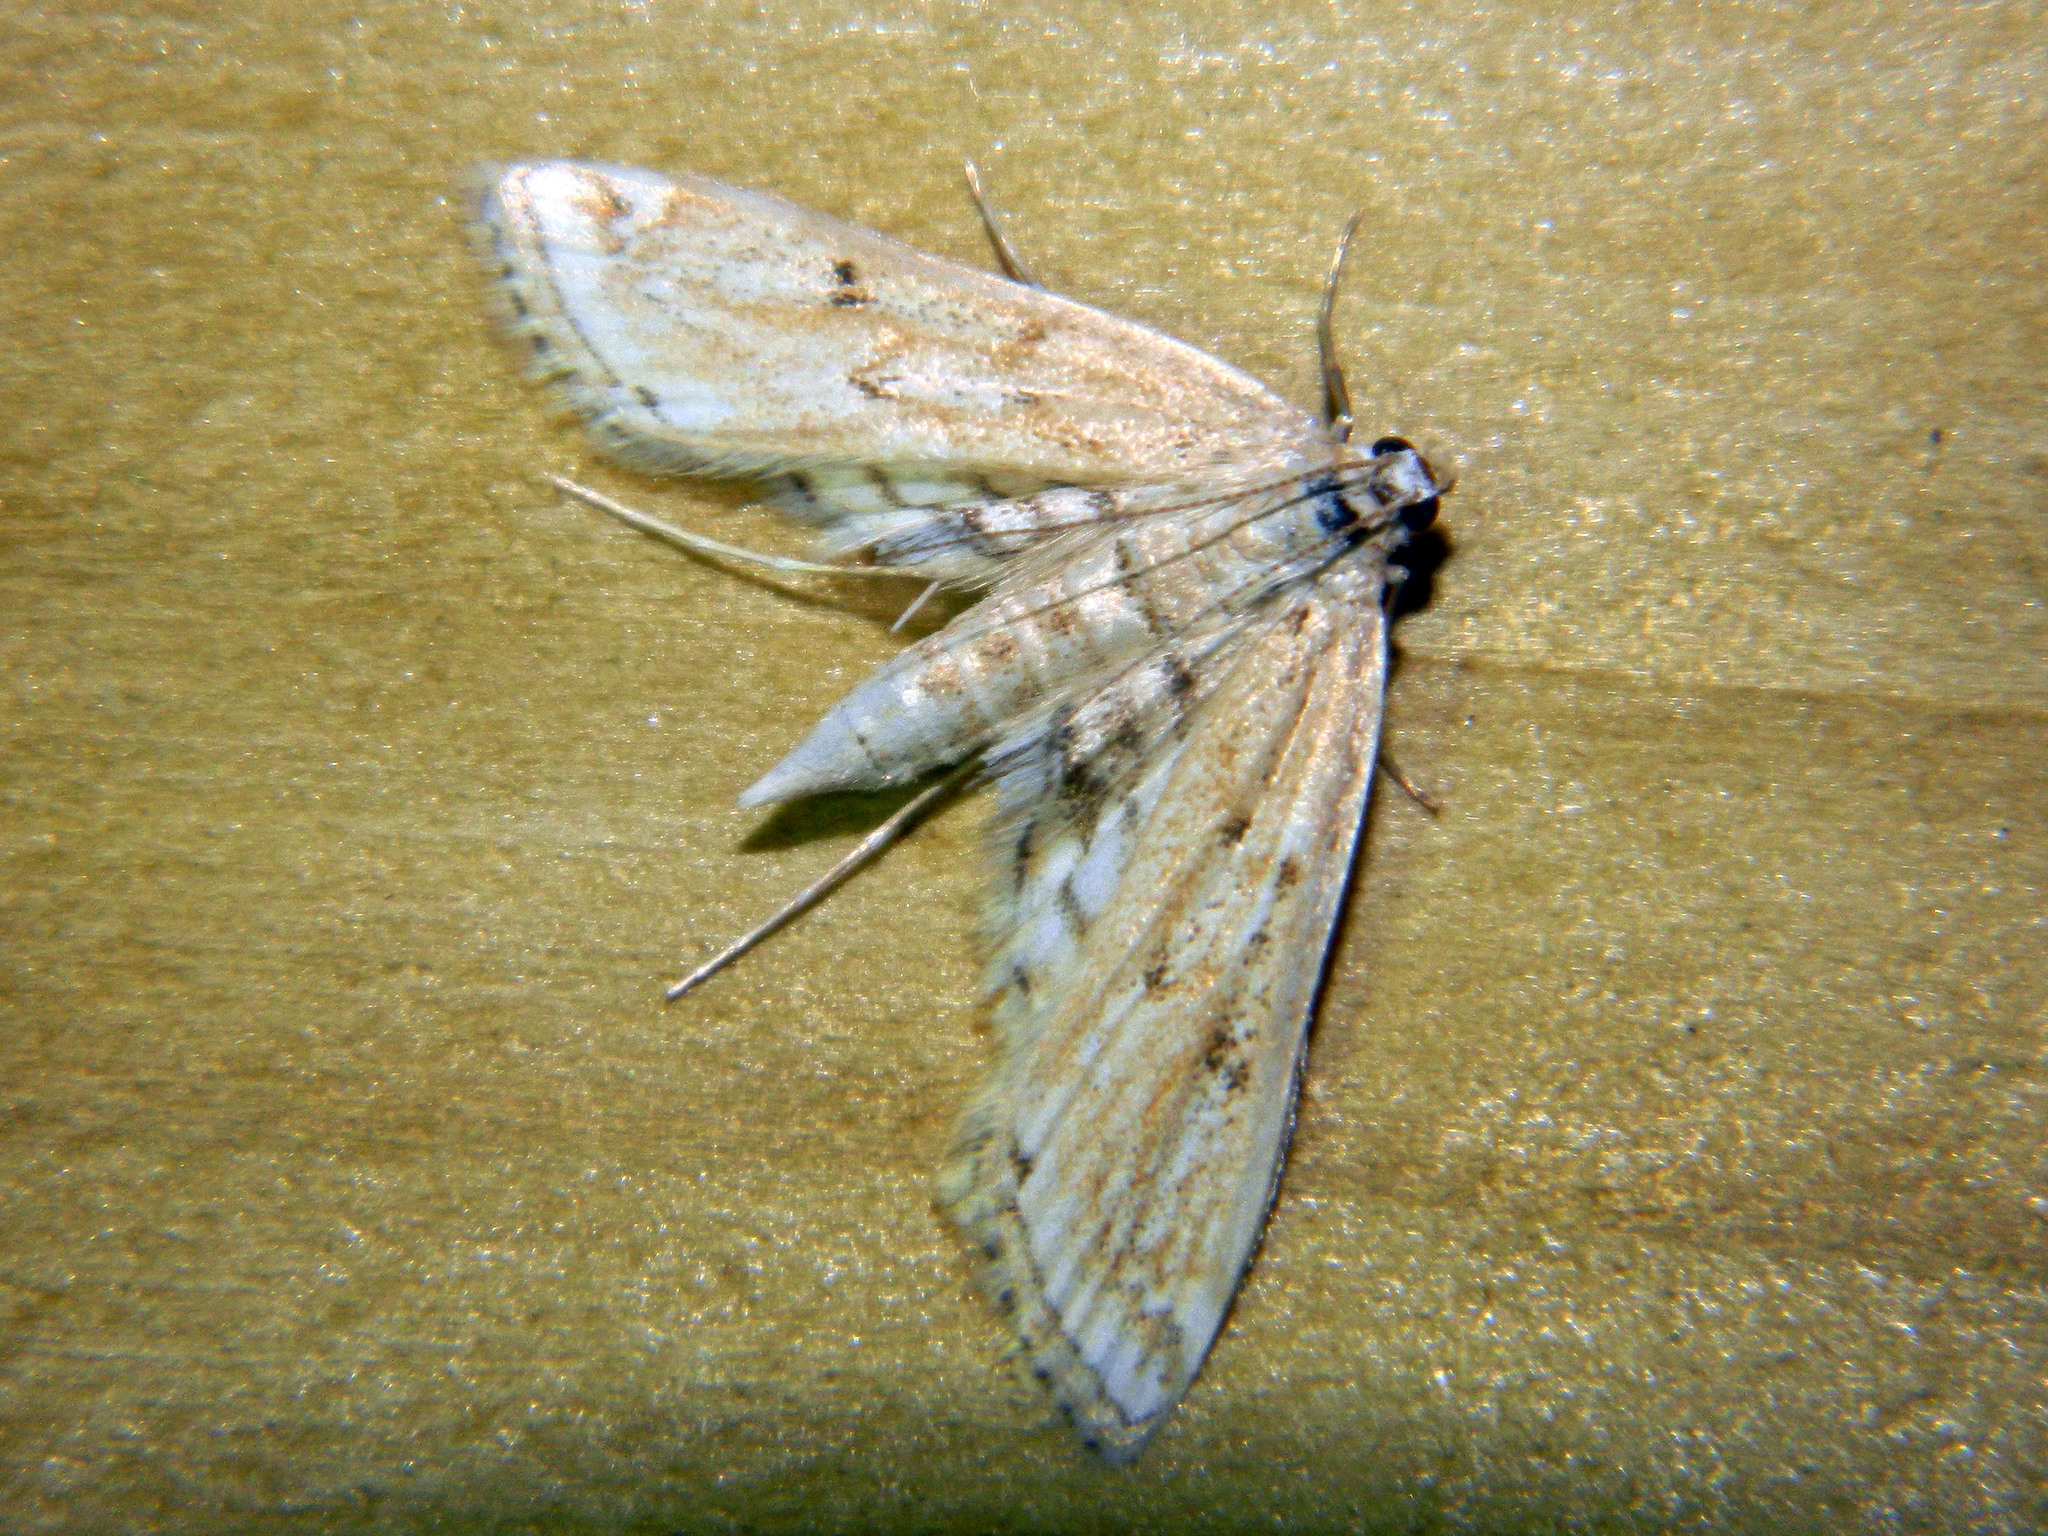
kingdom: Animalia
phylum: Arthropoda
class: Insecta
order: Lepidoptera
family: Crambidae
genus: Parapoynx
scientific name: Parapoynx allionealis
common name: Bladderwort casemaker
